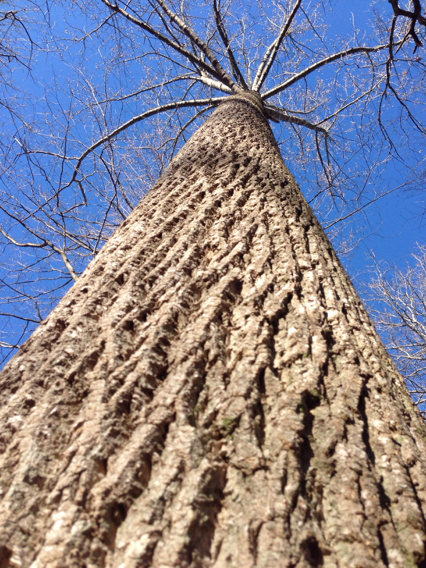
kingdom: Plantae
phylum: Tracheophyta
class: Magnoliopsida
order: Magnoliales
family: Magnoliaceae
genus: Liriodendron
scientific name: Liriodendron tulipifera
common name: Tulip tree
